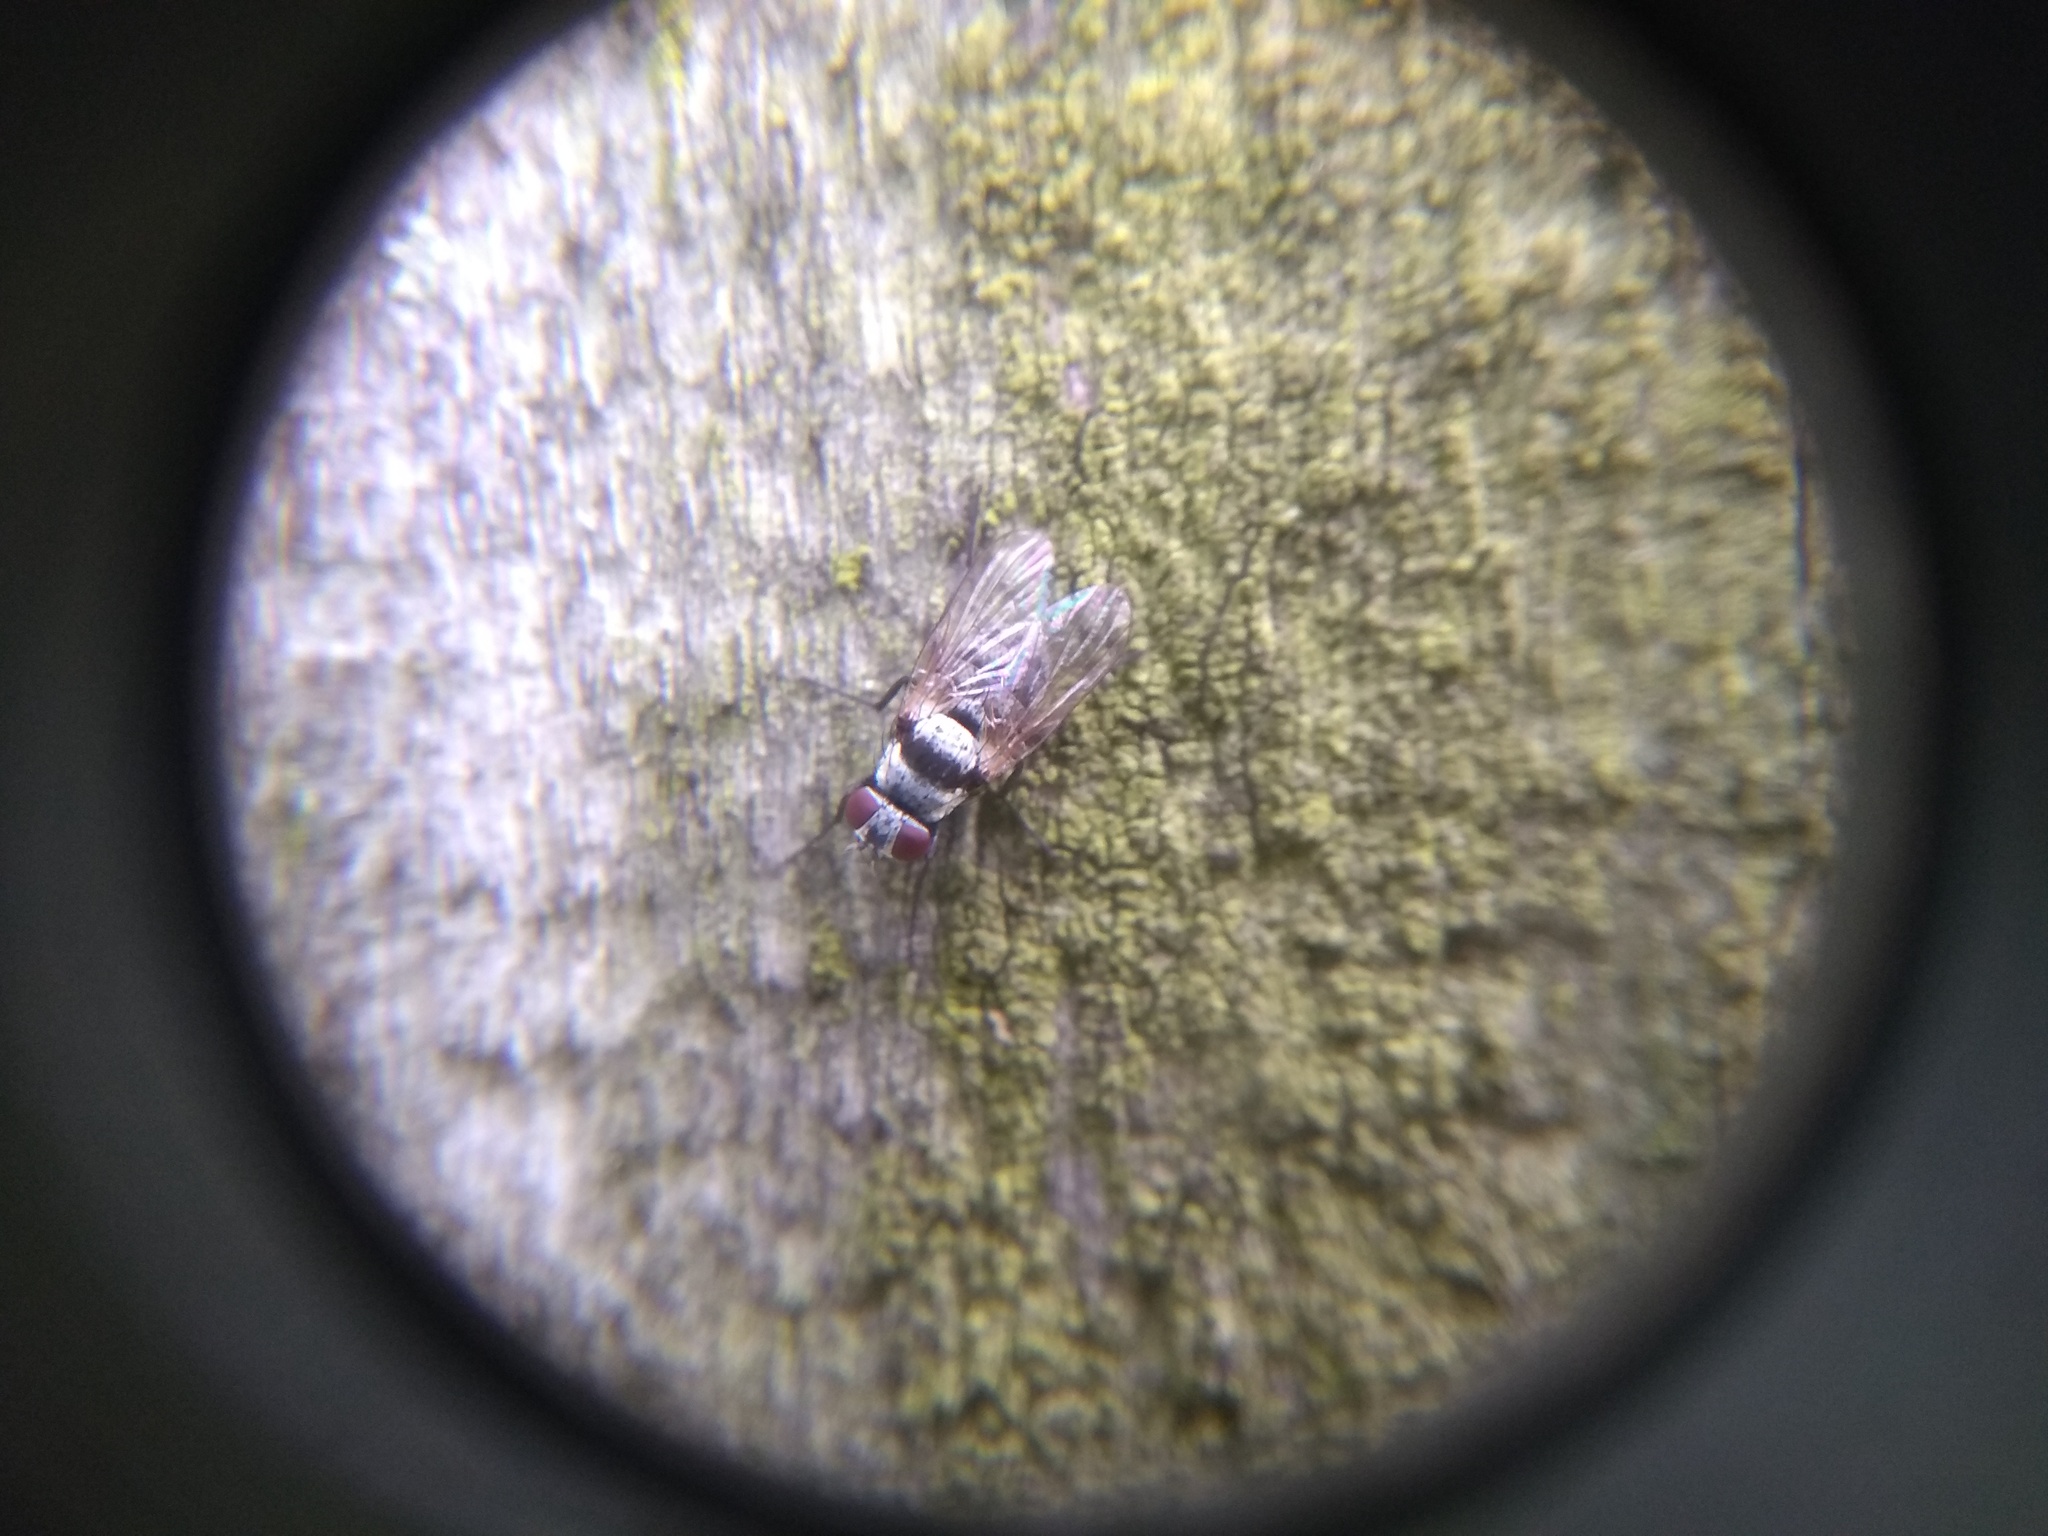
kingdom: Animalia
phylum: Arthropoda
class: Insecta
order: Diptera
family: Anthomyiidae
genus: Anthomyia
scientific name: Anthomyia illocata
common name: Fly
